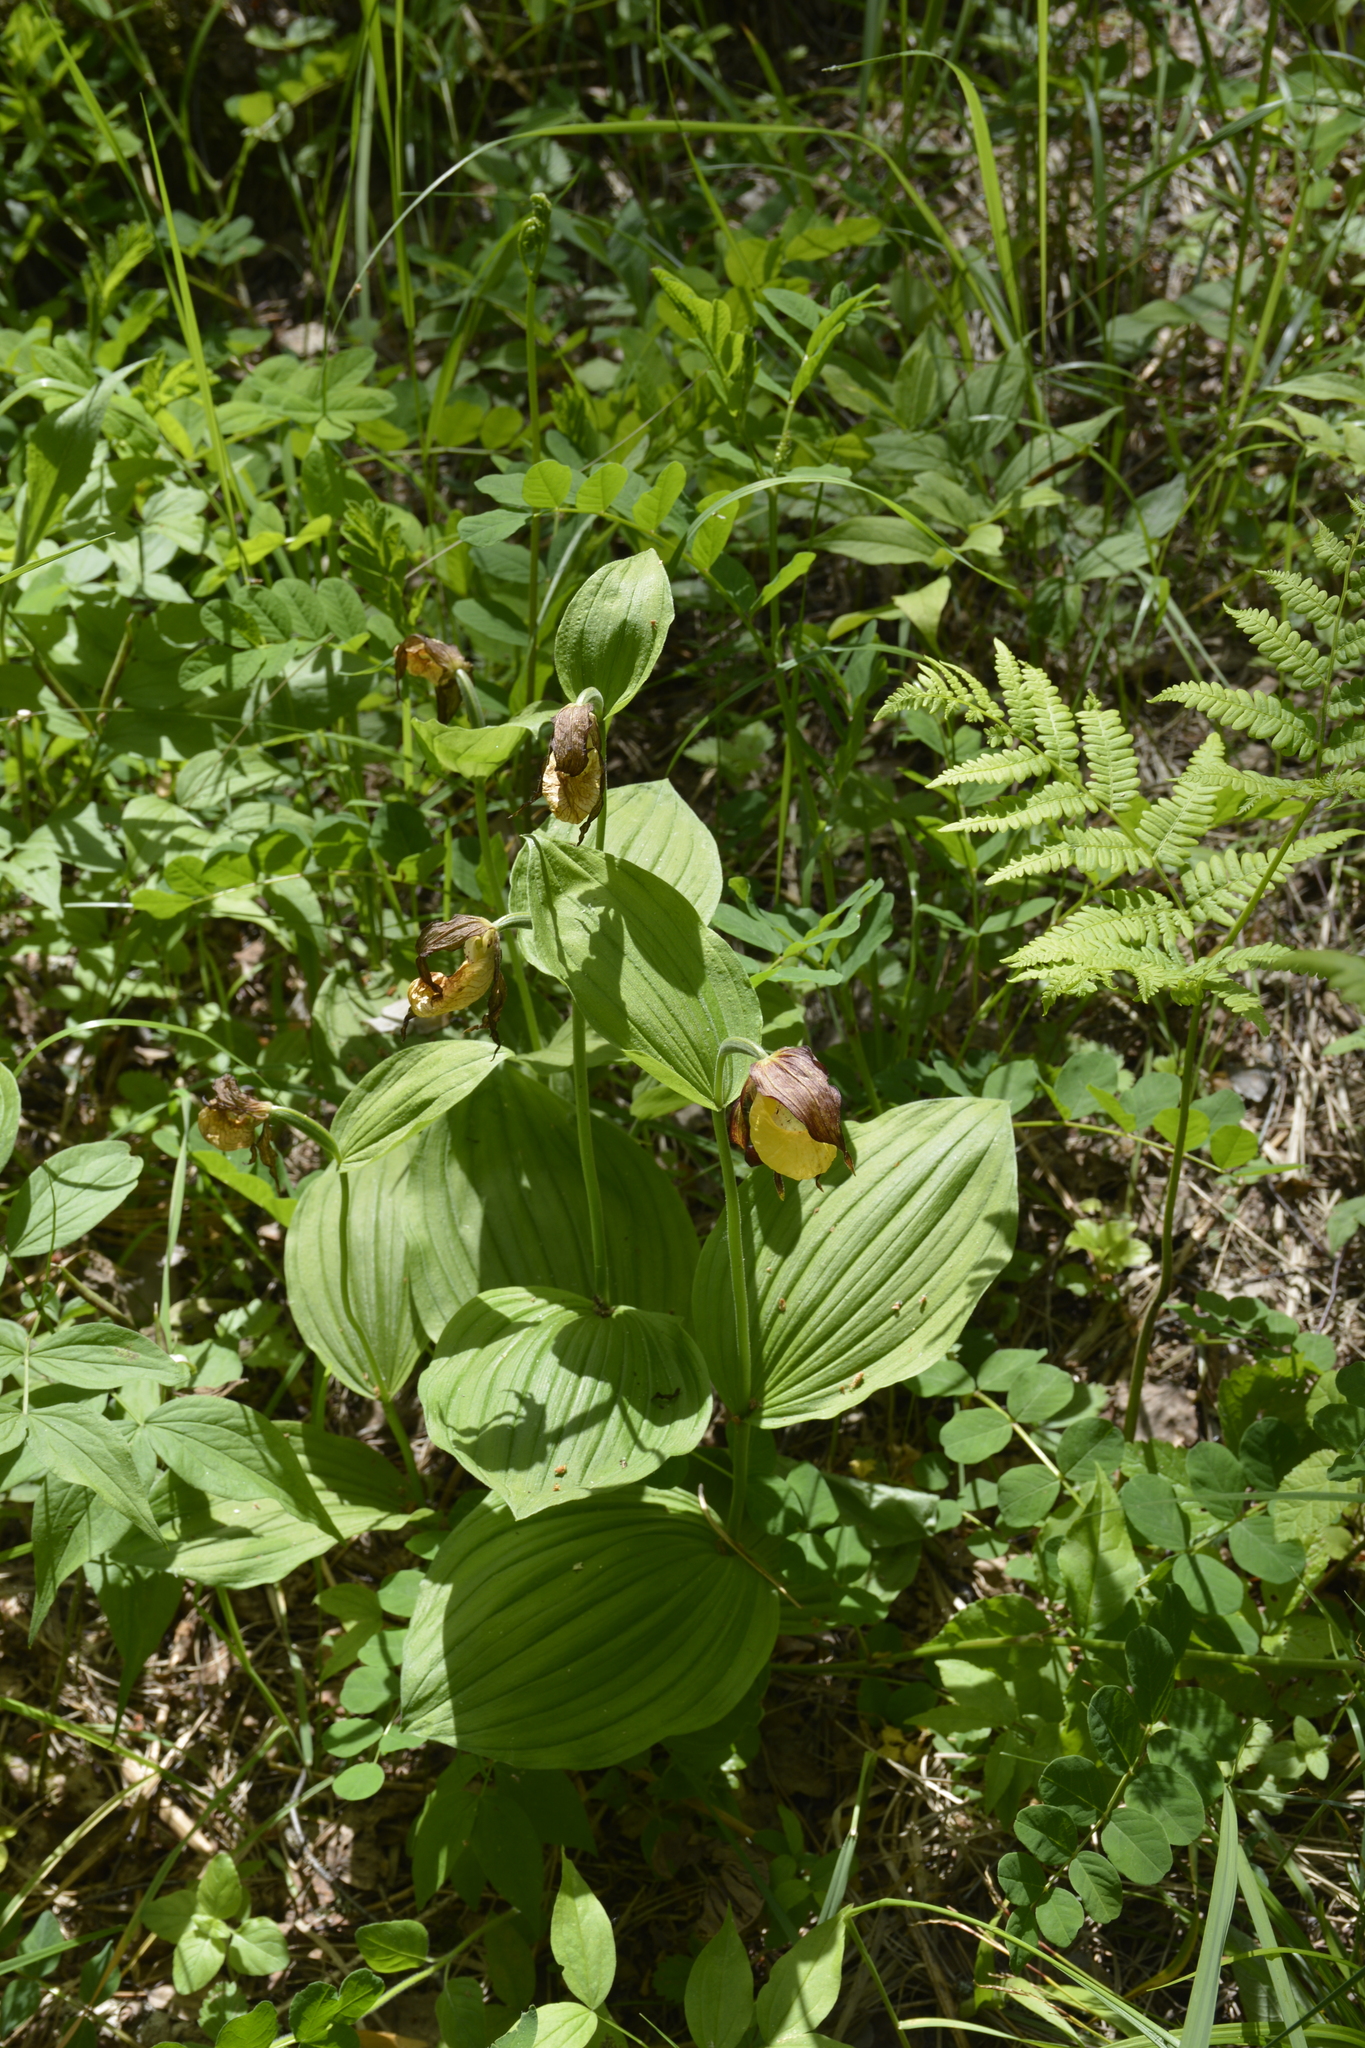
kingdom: Plantae
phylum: Tracheophyta
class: Liliopsida
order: Asparagales
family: Orchidaceae
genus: Cypripedium
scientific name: Cypripedium calceolus
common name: Lady's-slipper
